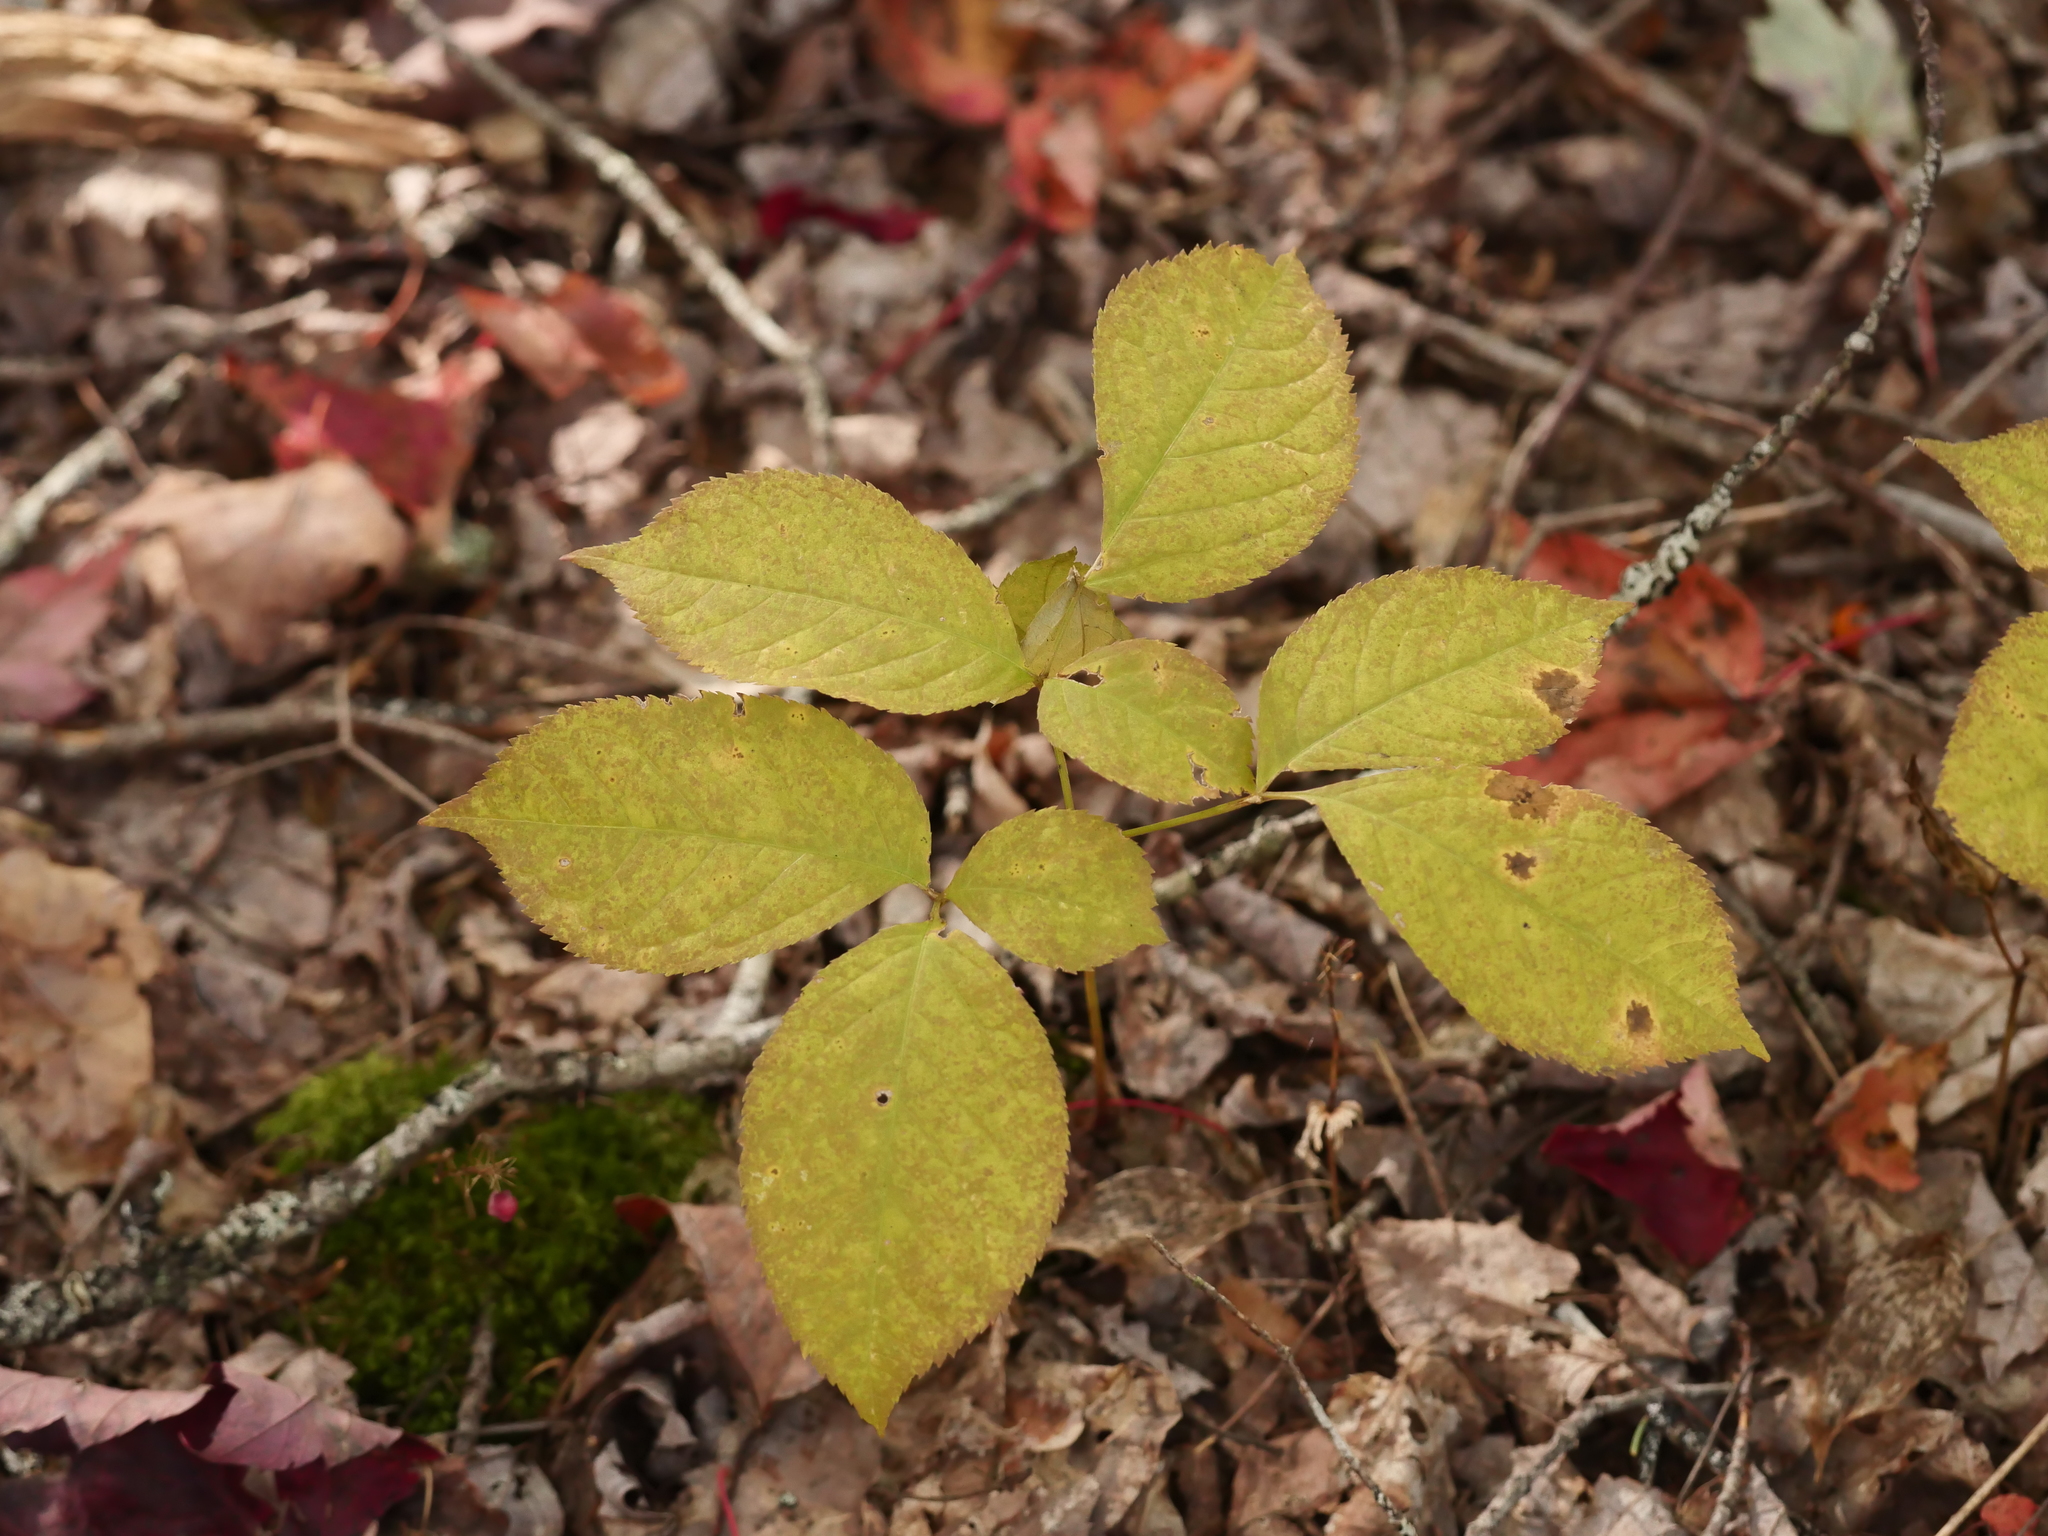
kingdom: Plantae
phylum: Tracheophyta
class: Magnoliopsida
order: Apiales
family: Araliaceae
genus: Aralia
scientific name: Aralia nudicaulis
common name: Wild sarsaparilla
